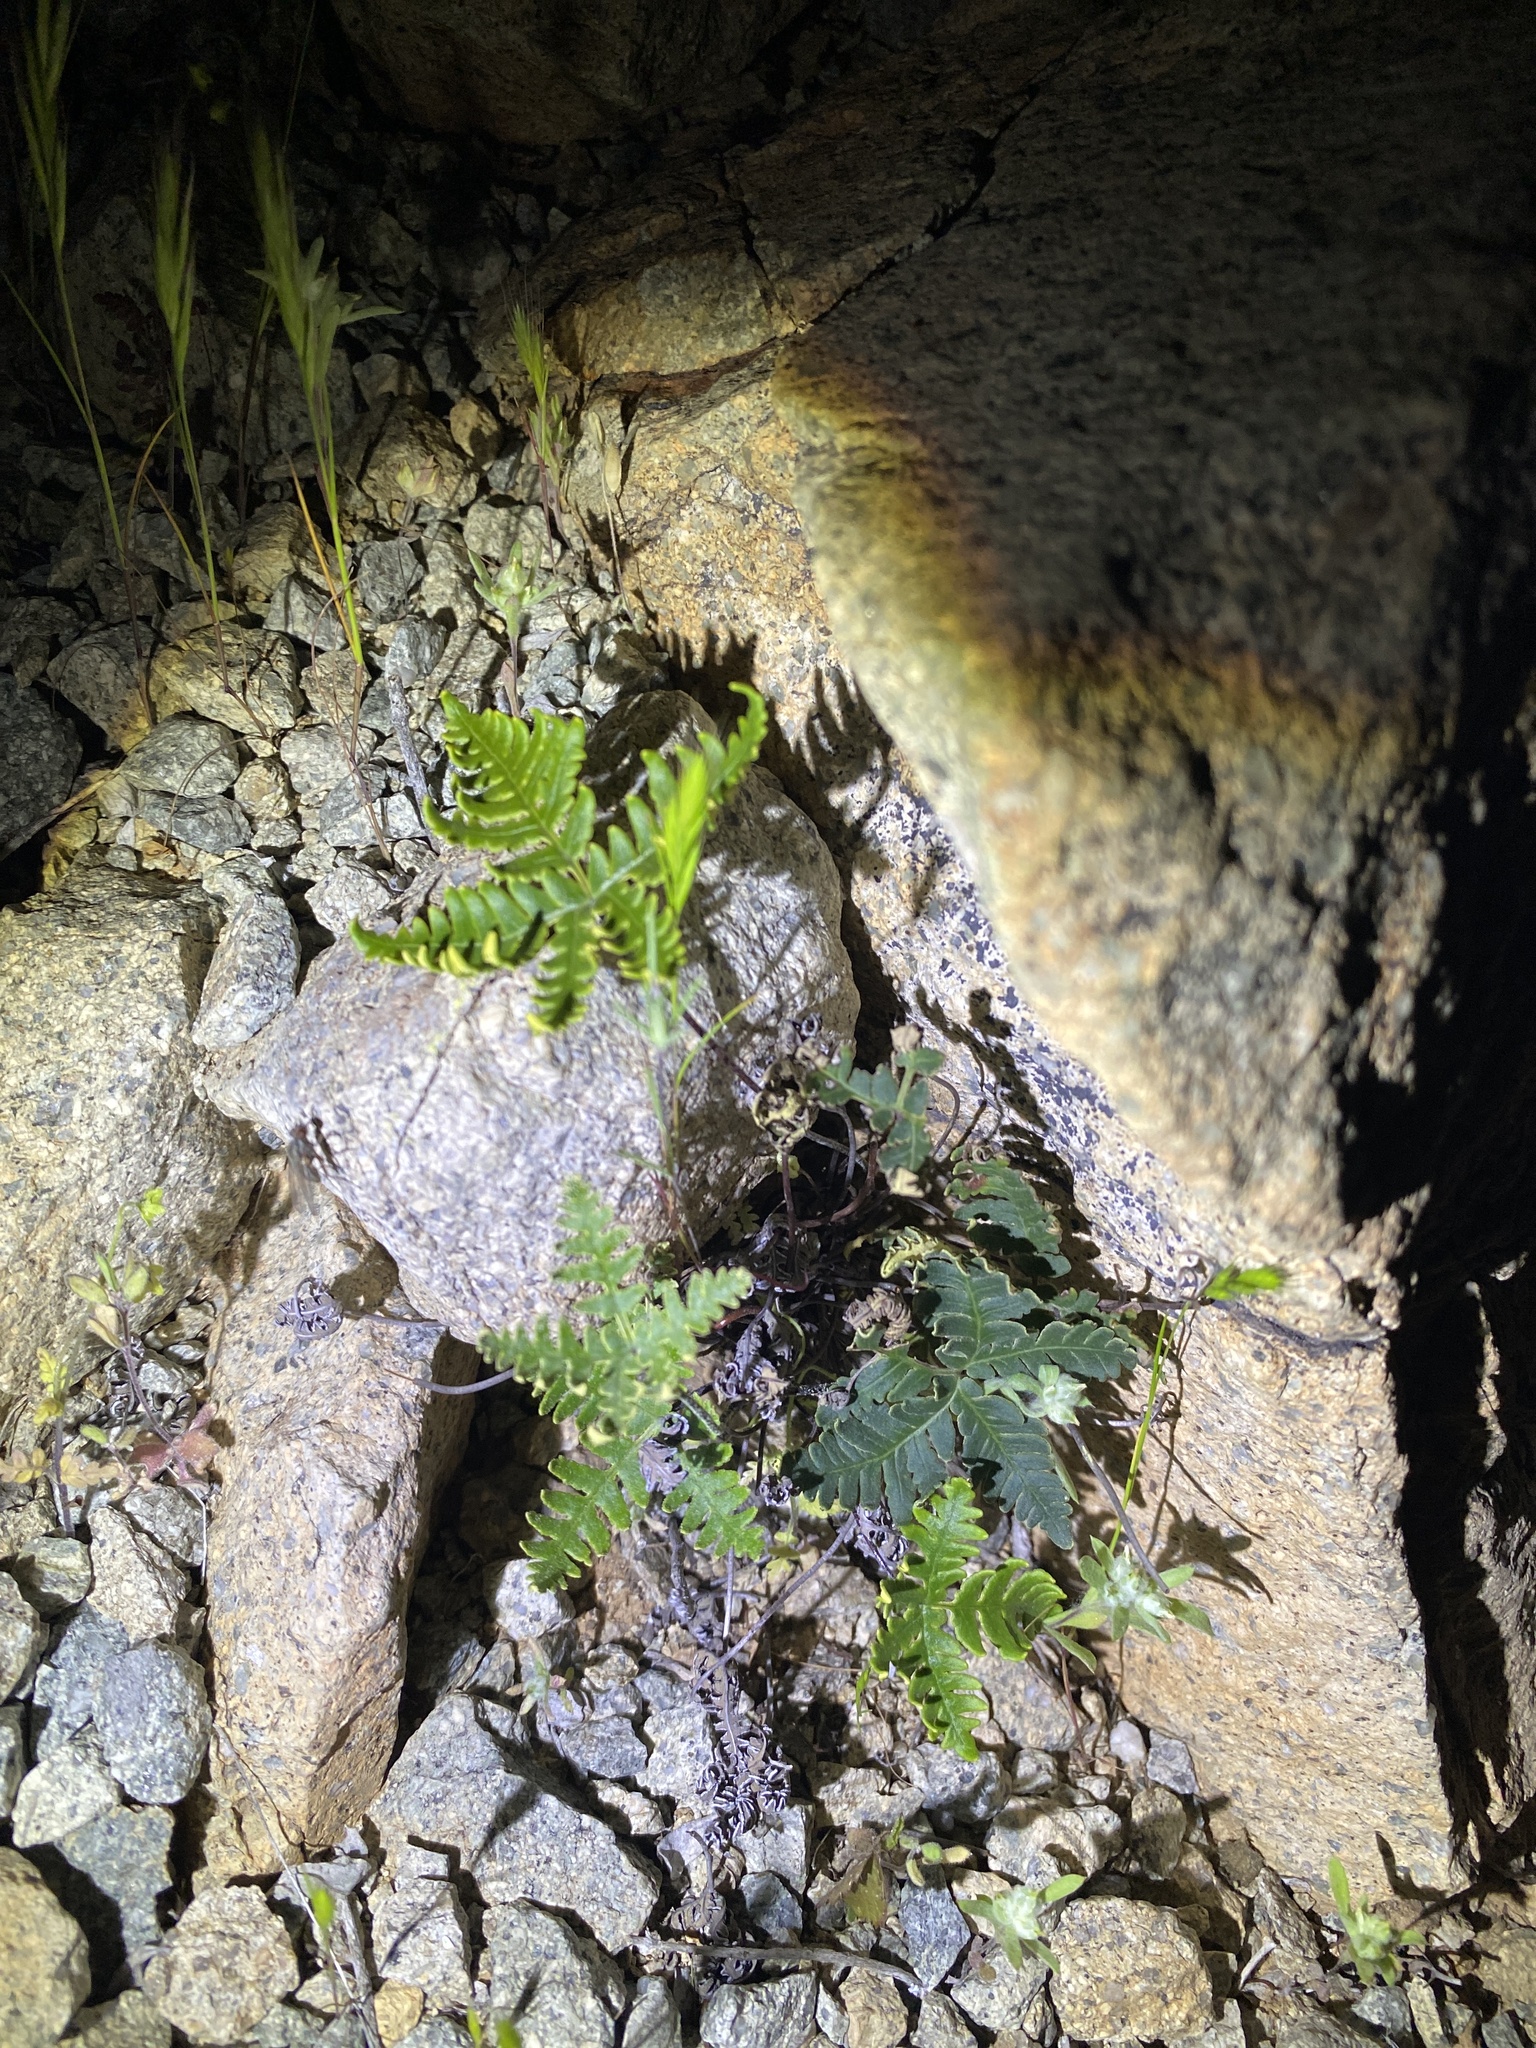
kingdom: Plantae
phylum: Tracheophyta
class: Polypodiopsida
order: Polypodiales
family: Pteridaceae
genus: Notholaena
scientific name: Notholaena standleyi
